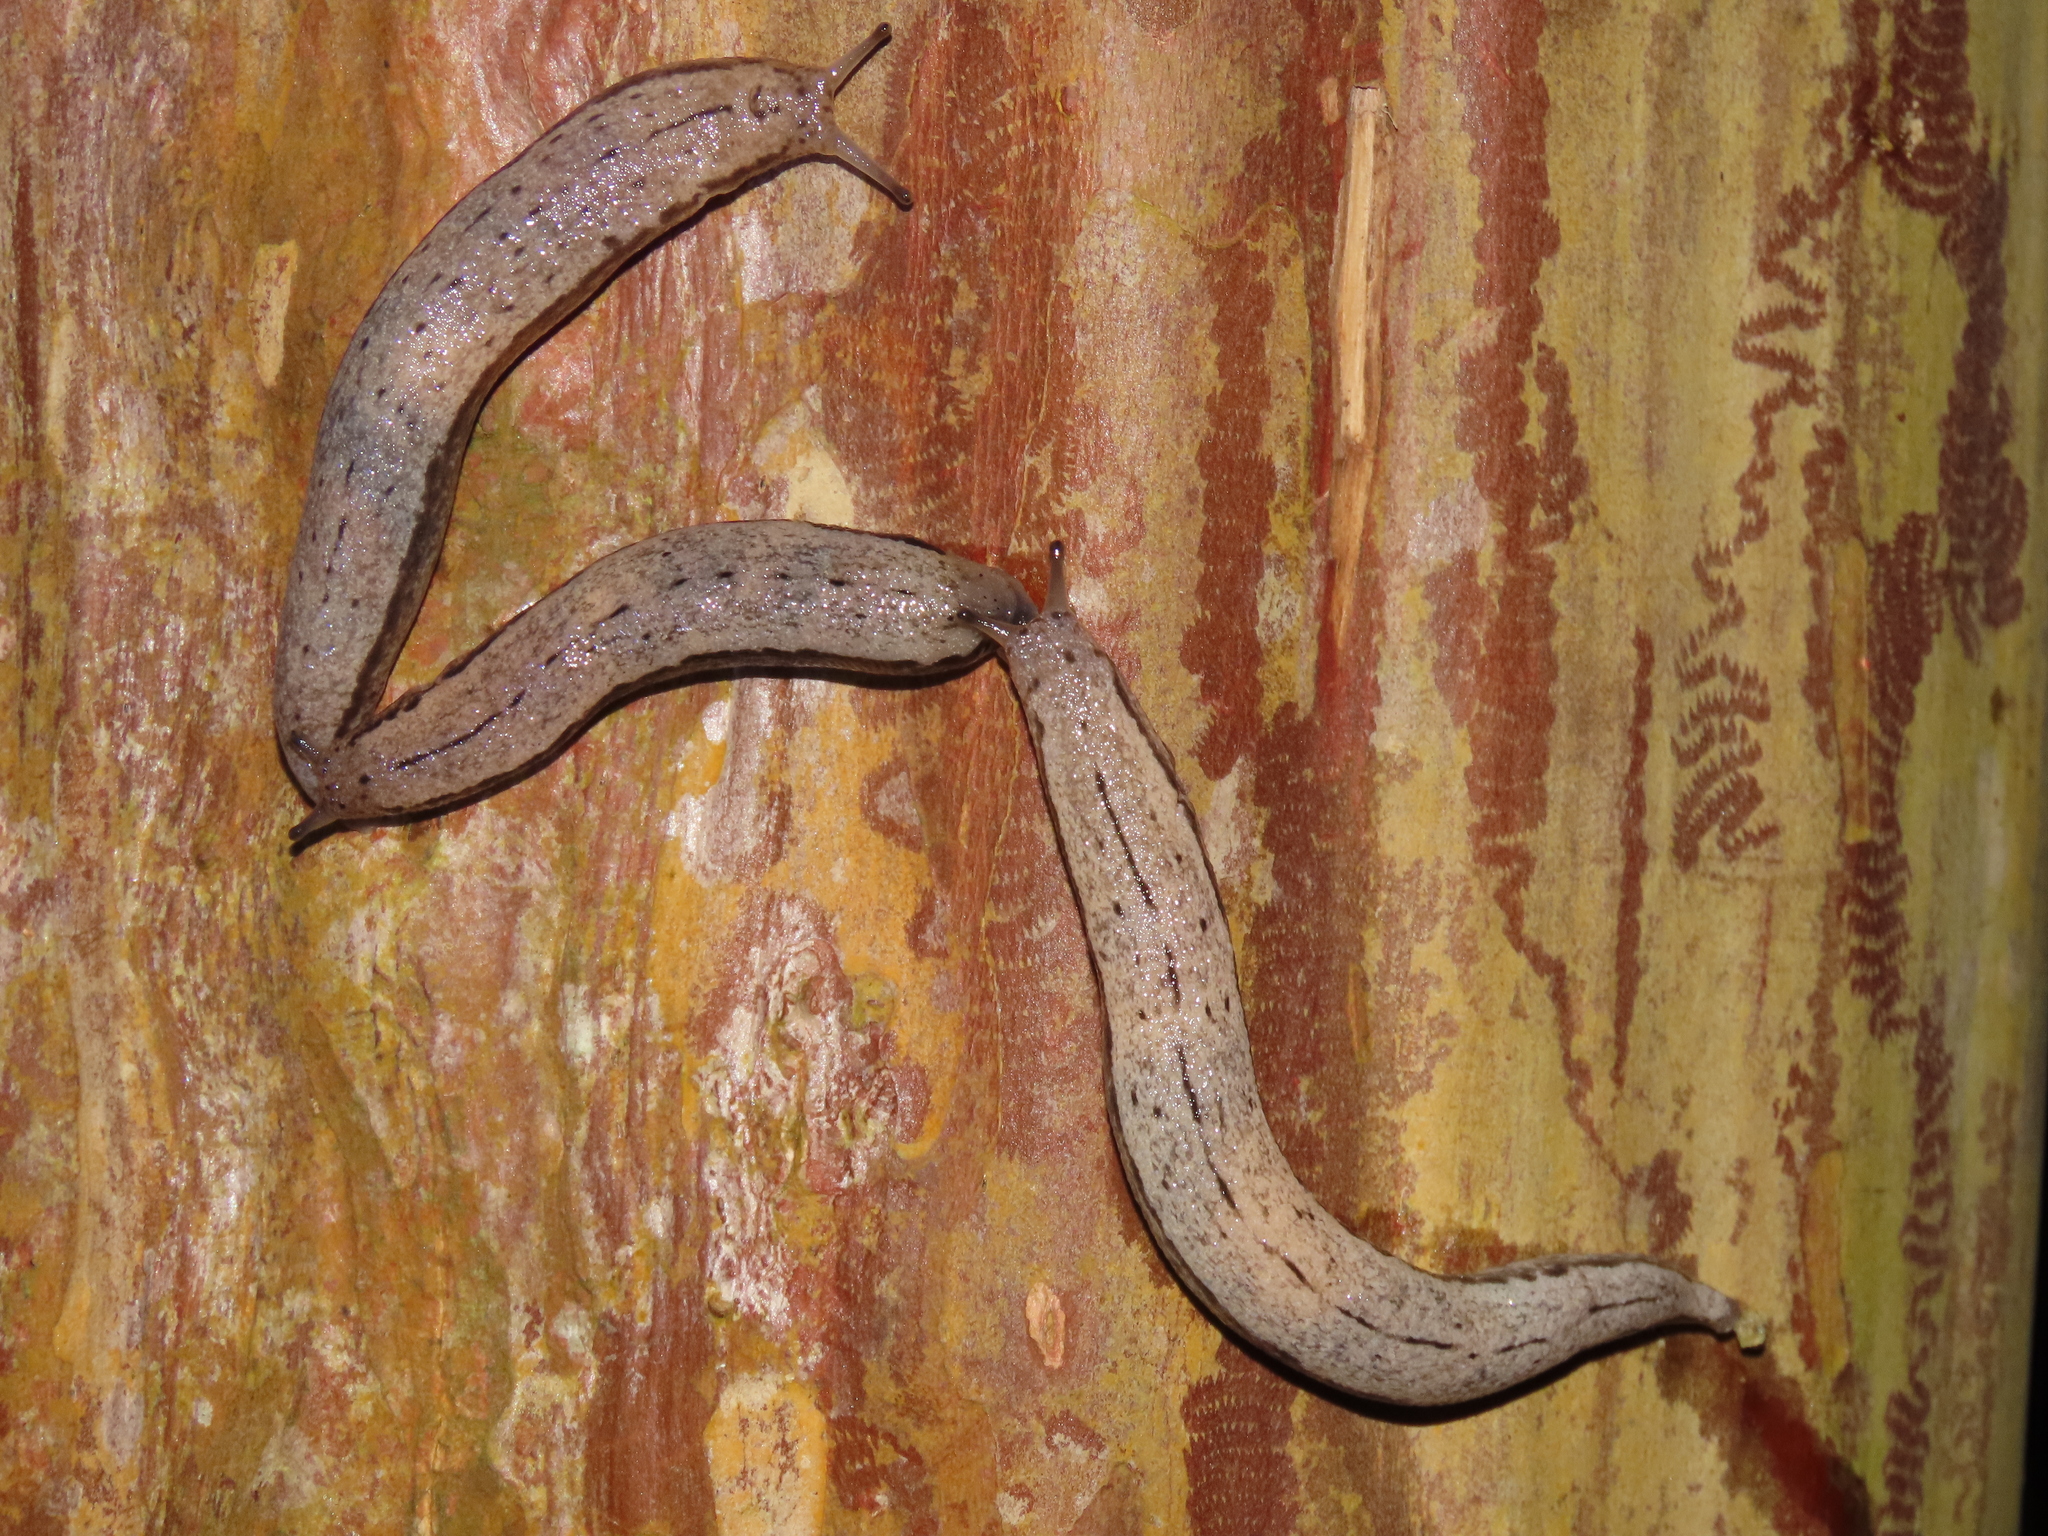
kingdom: Animalia
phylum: Mollusca
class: Gastropoda
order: Stylommatophora
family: Philomycidae
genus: Meghimatium
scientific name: Meghimatium bilineatum
